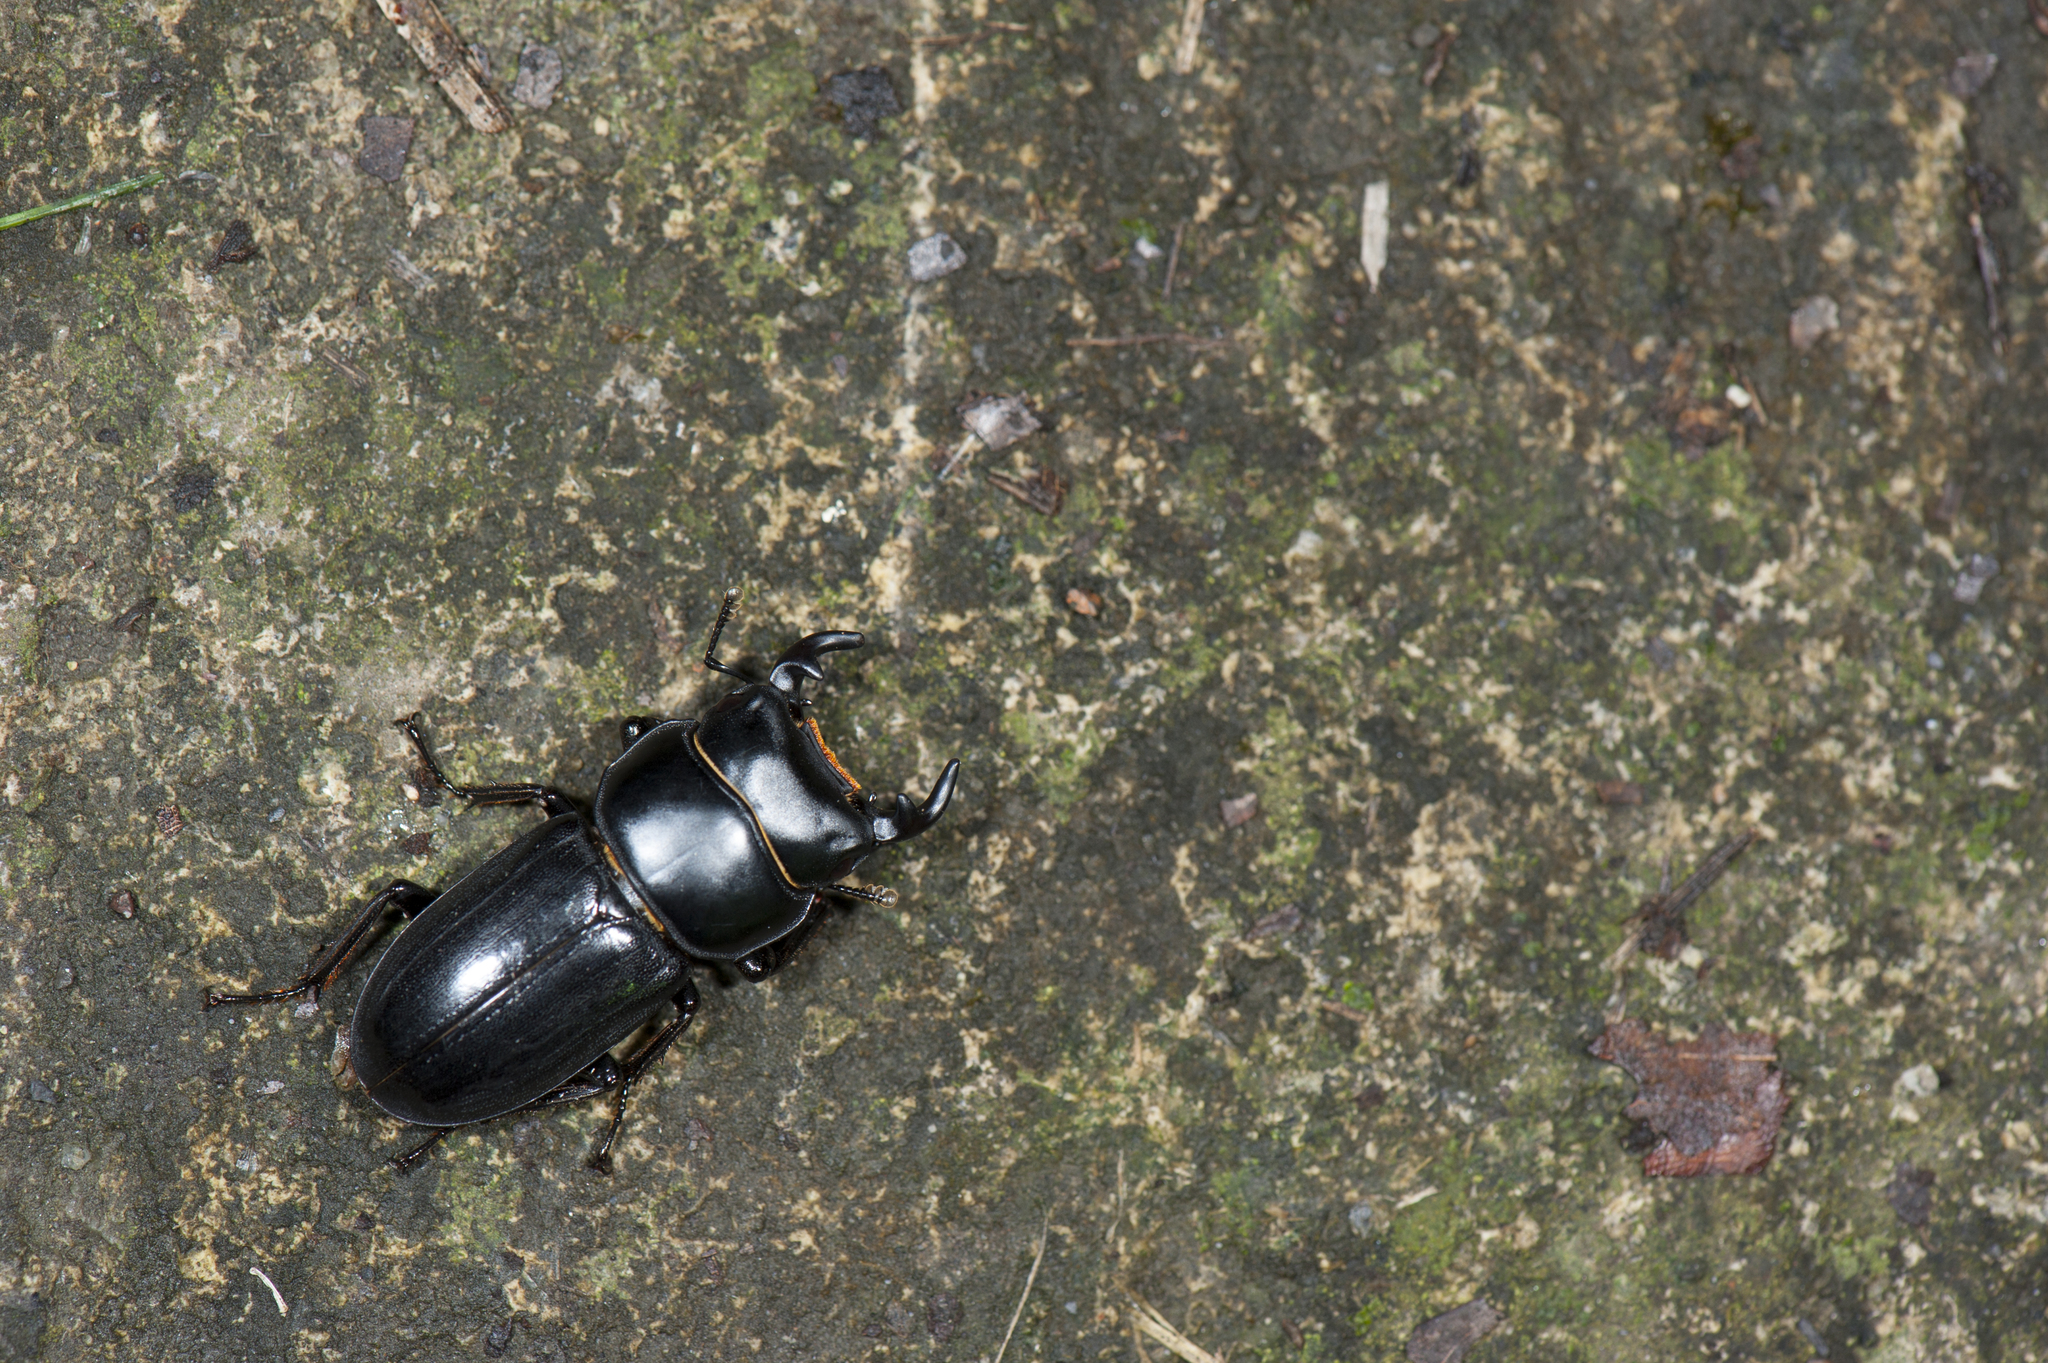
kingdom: Animalia
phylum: Arthropoda
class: Insecta
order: Coleoptera
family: Lucanidae
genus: Dorcus
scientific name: Dorcus yaksha
